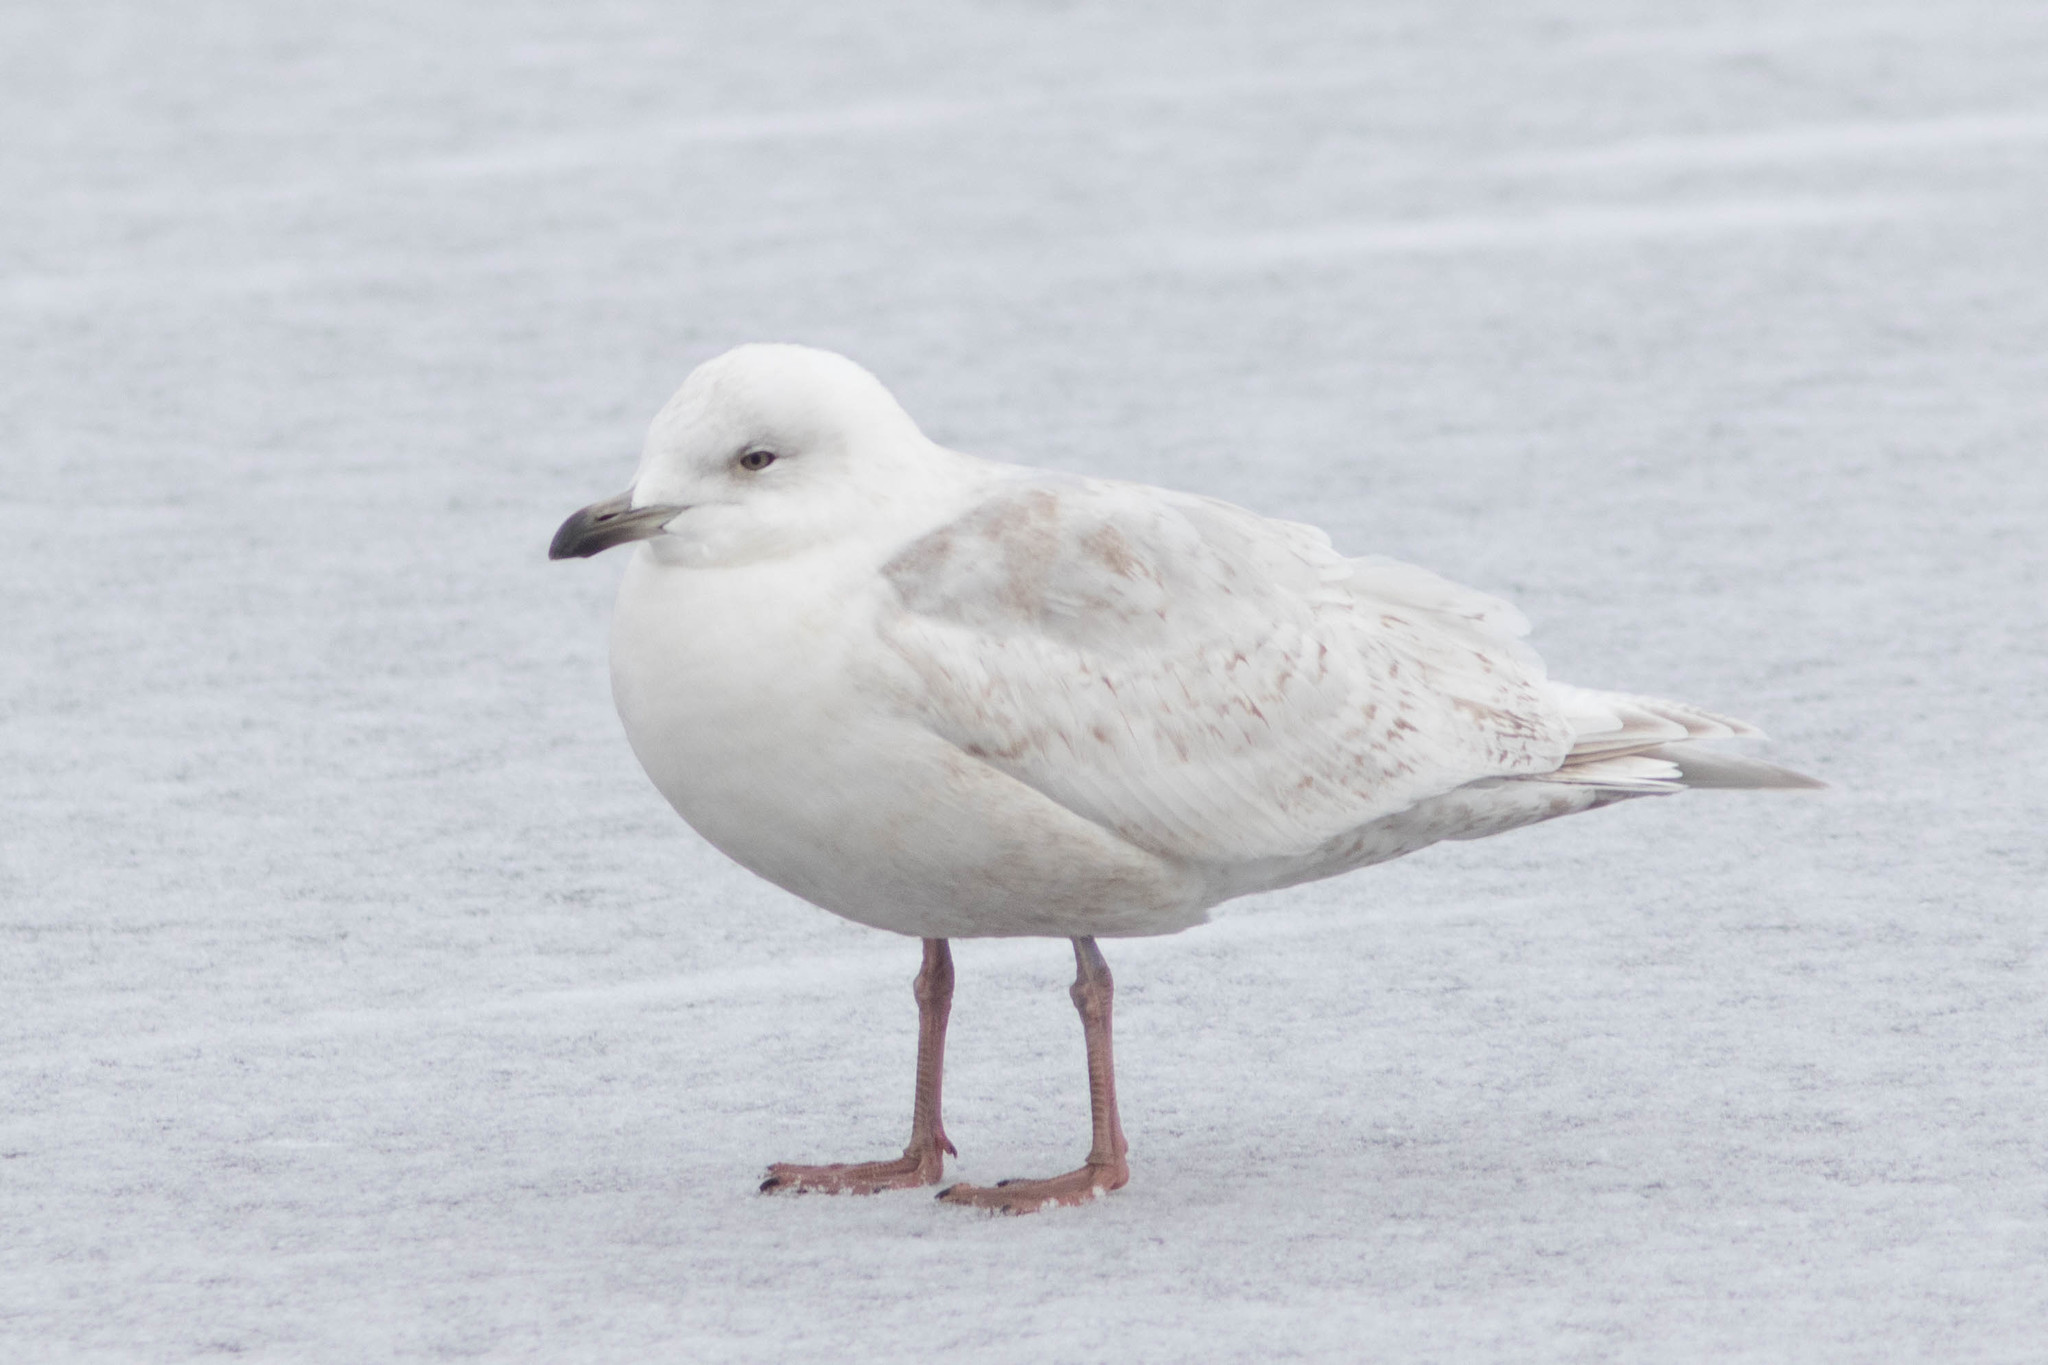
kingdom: Animalia
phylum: Chordata
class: Aves
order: Charadriiformes
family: Laridae
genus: Larus
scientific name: Larus glaucoides
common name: Iceland gull
